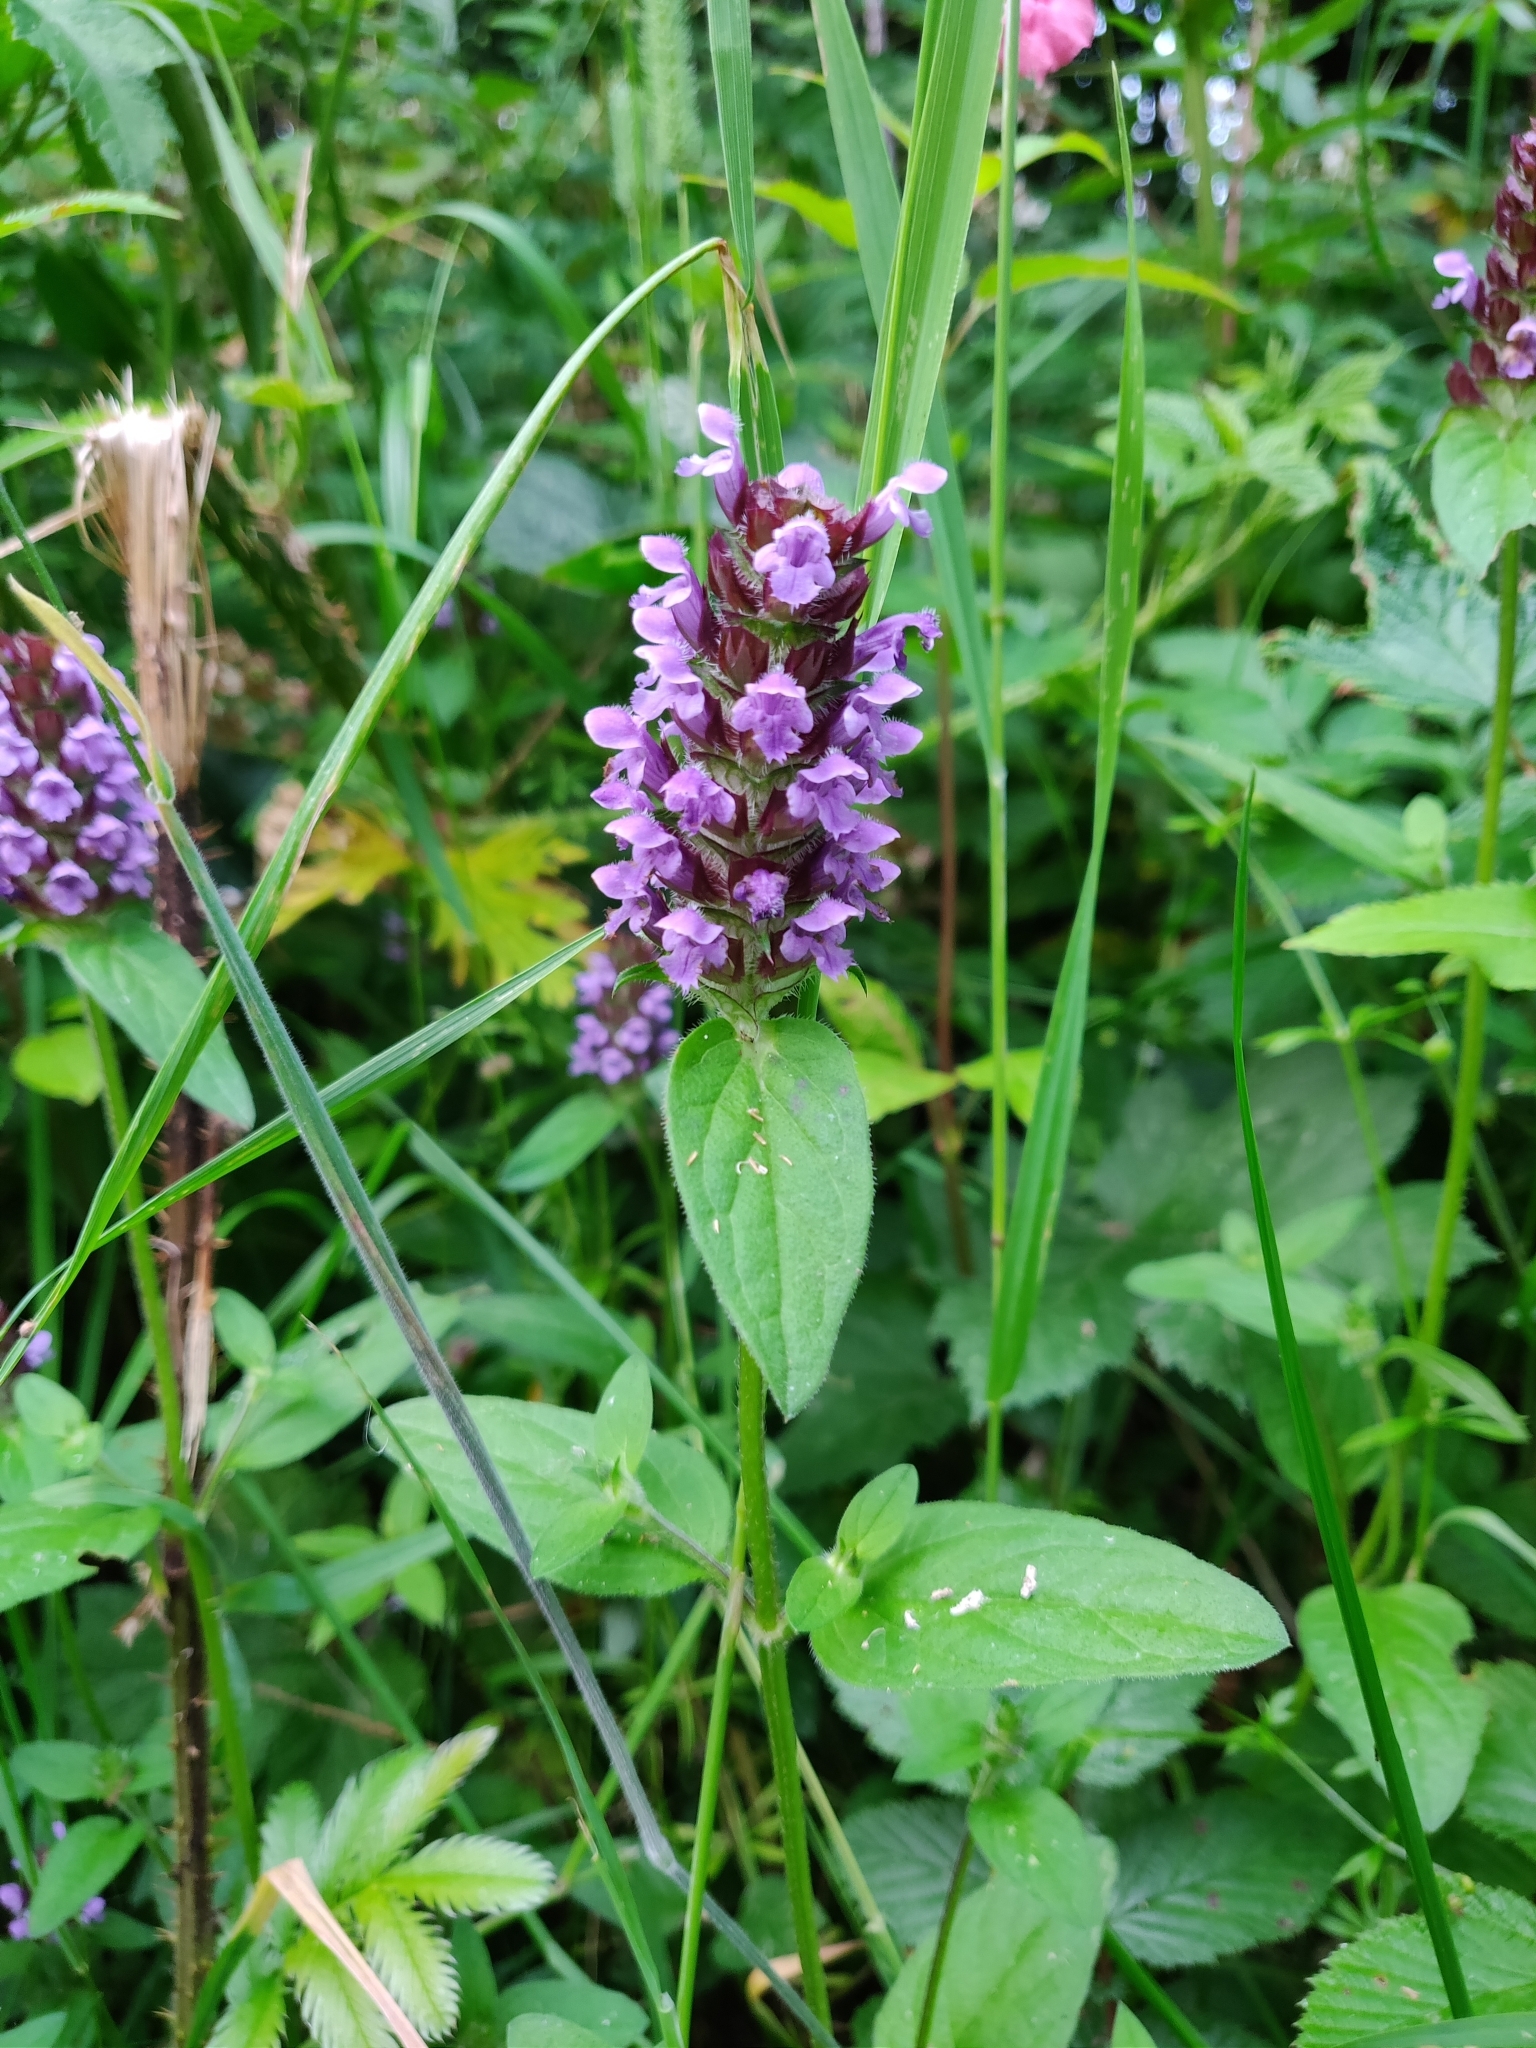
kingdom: Plantae
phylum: Tracheophyta
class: Magnoliopsida
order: Lamiales
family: Lamiaceae
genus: Prunella
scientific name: Prunella vulgaris
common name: Heal-all
